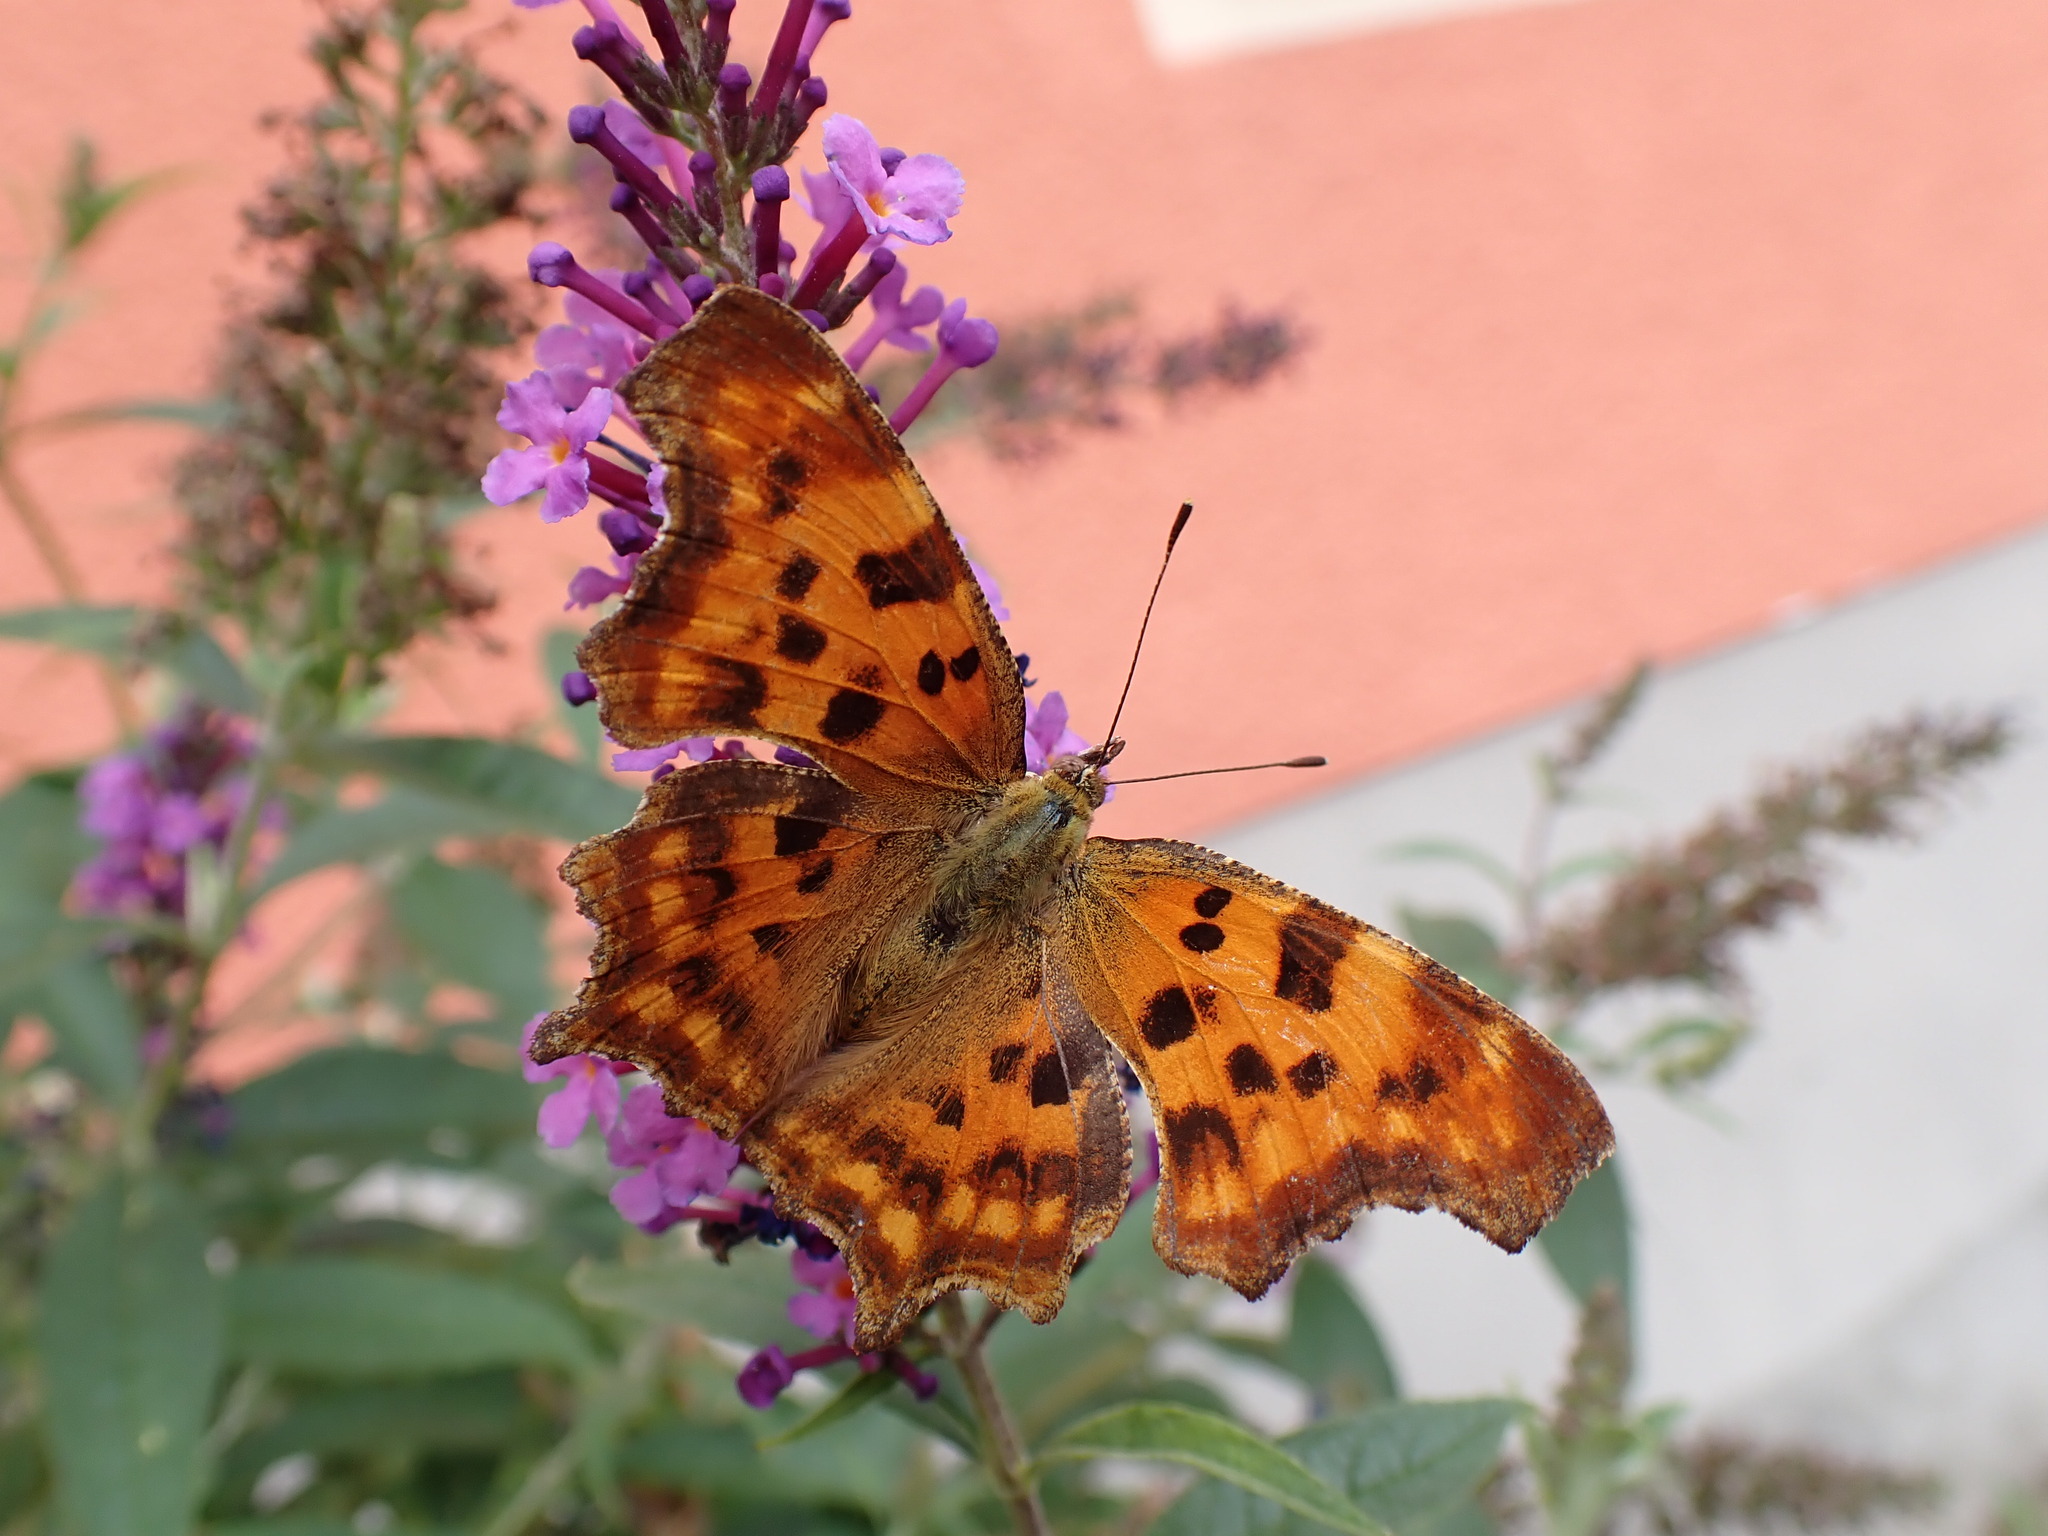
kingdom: Animalia
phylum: Arthropoda
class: Insecta
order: Lepidoptera
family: Nymphalidae
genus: Polygonia
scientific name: Polygonia c-album
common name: Comma
